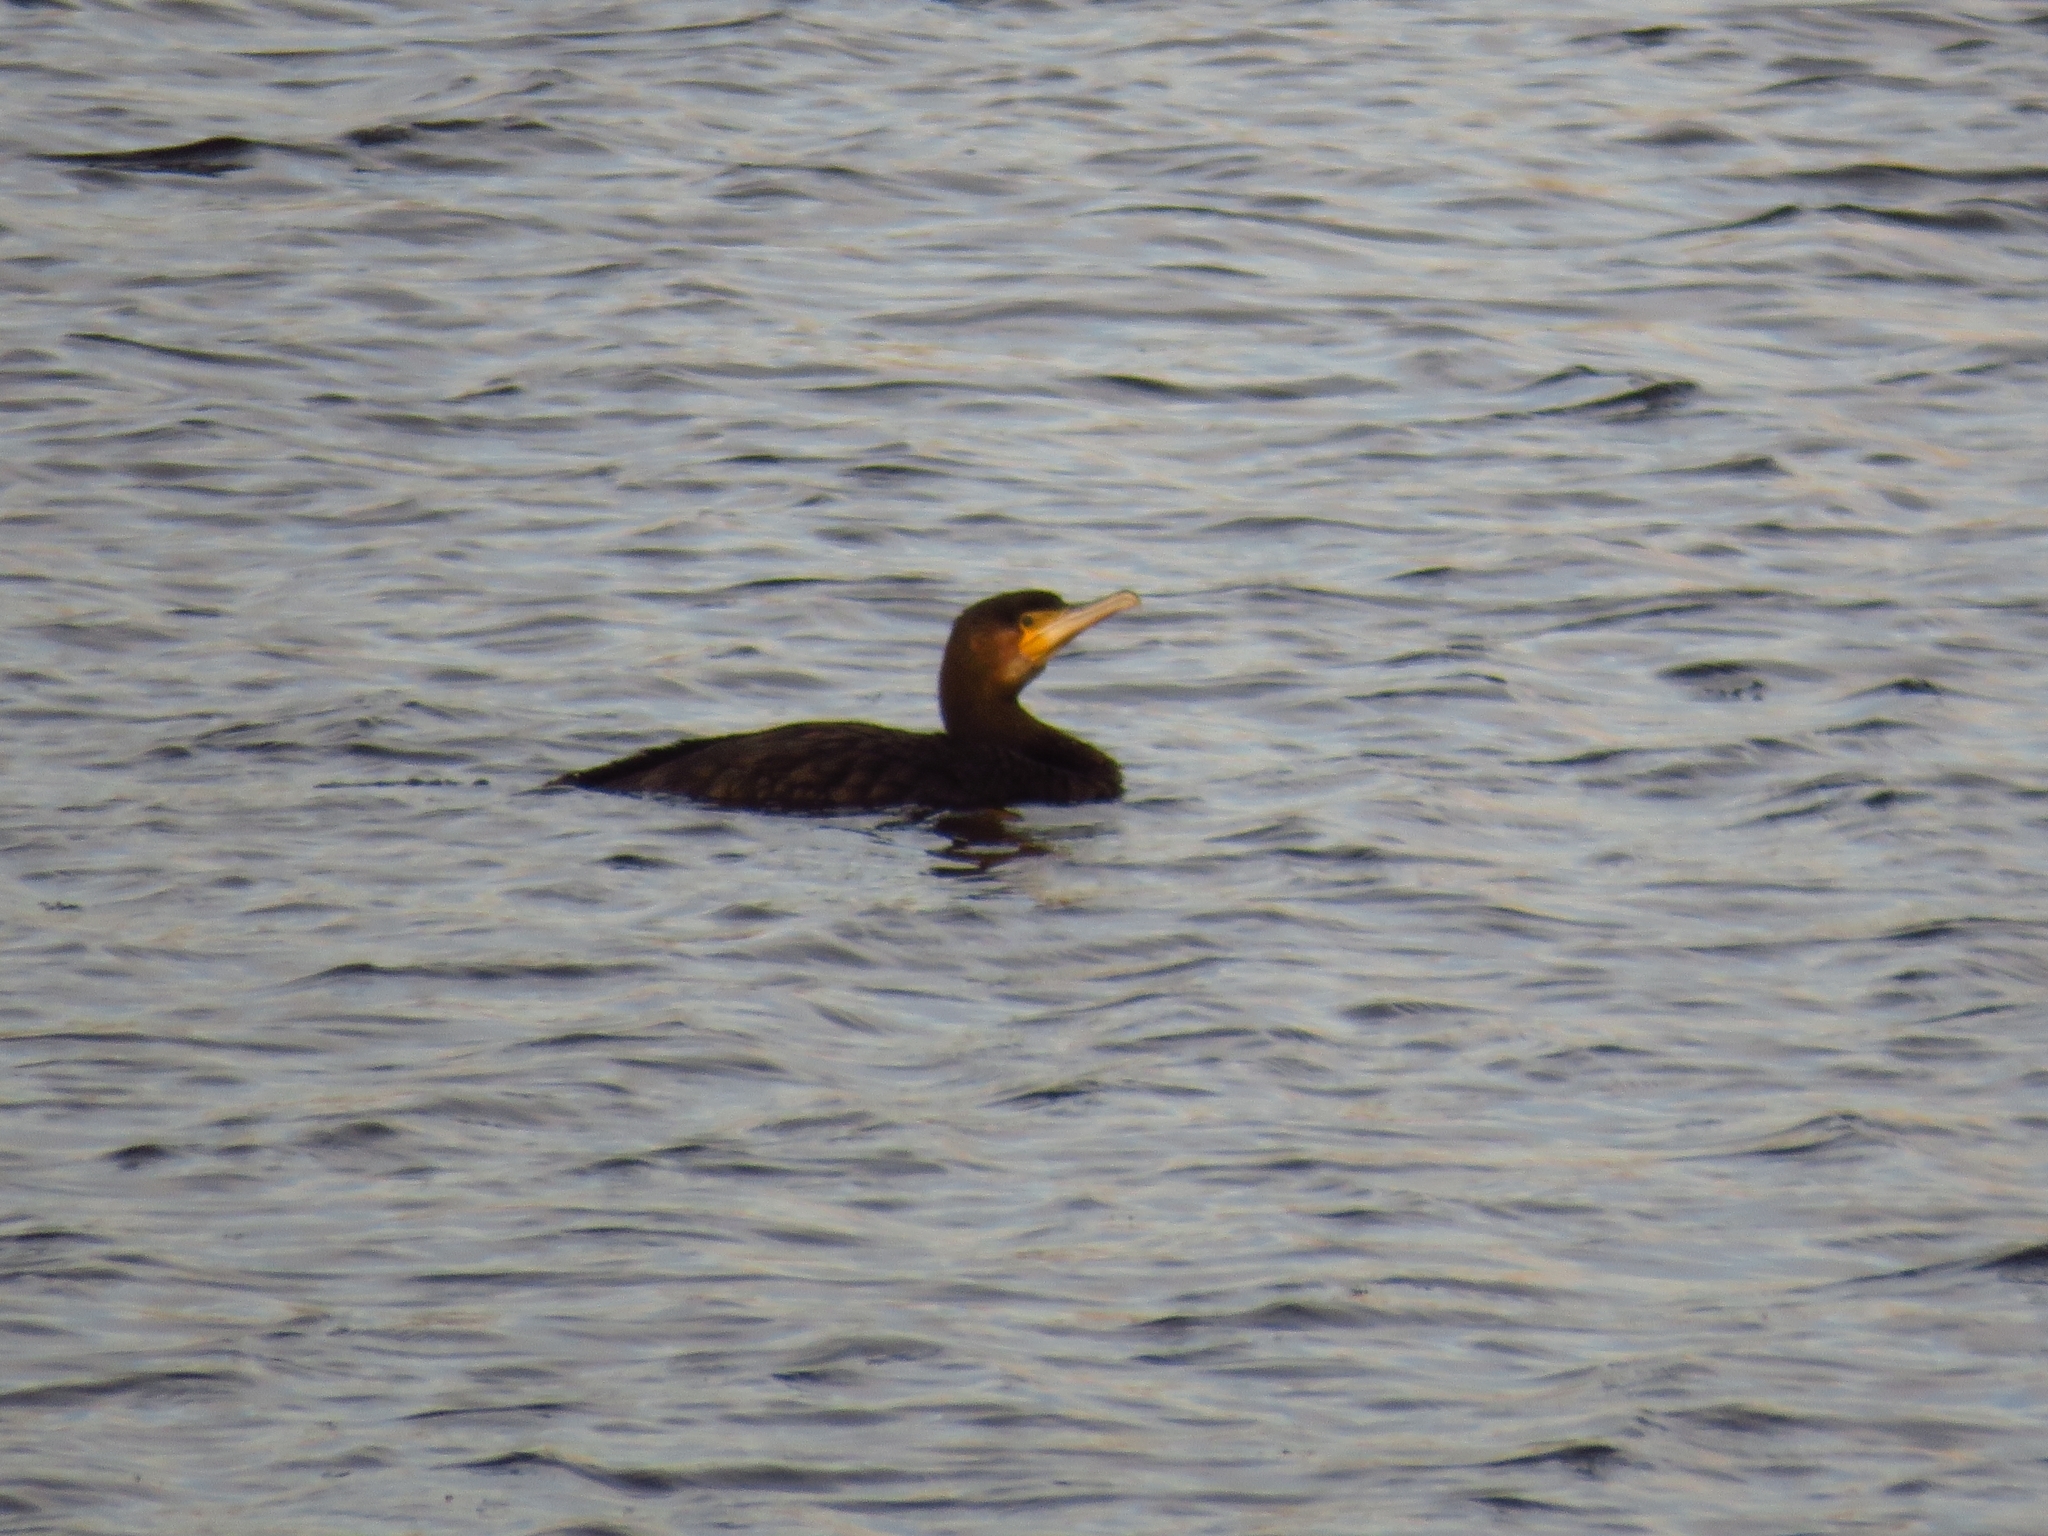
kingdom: Animalia
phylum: Chordata
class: Aves
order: Suliformes
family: Phalacrocoracidae
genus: Phalacrocorax
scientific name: Phalacrocorax carbo
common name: Great cormorant
